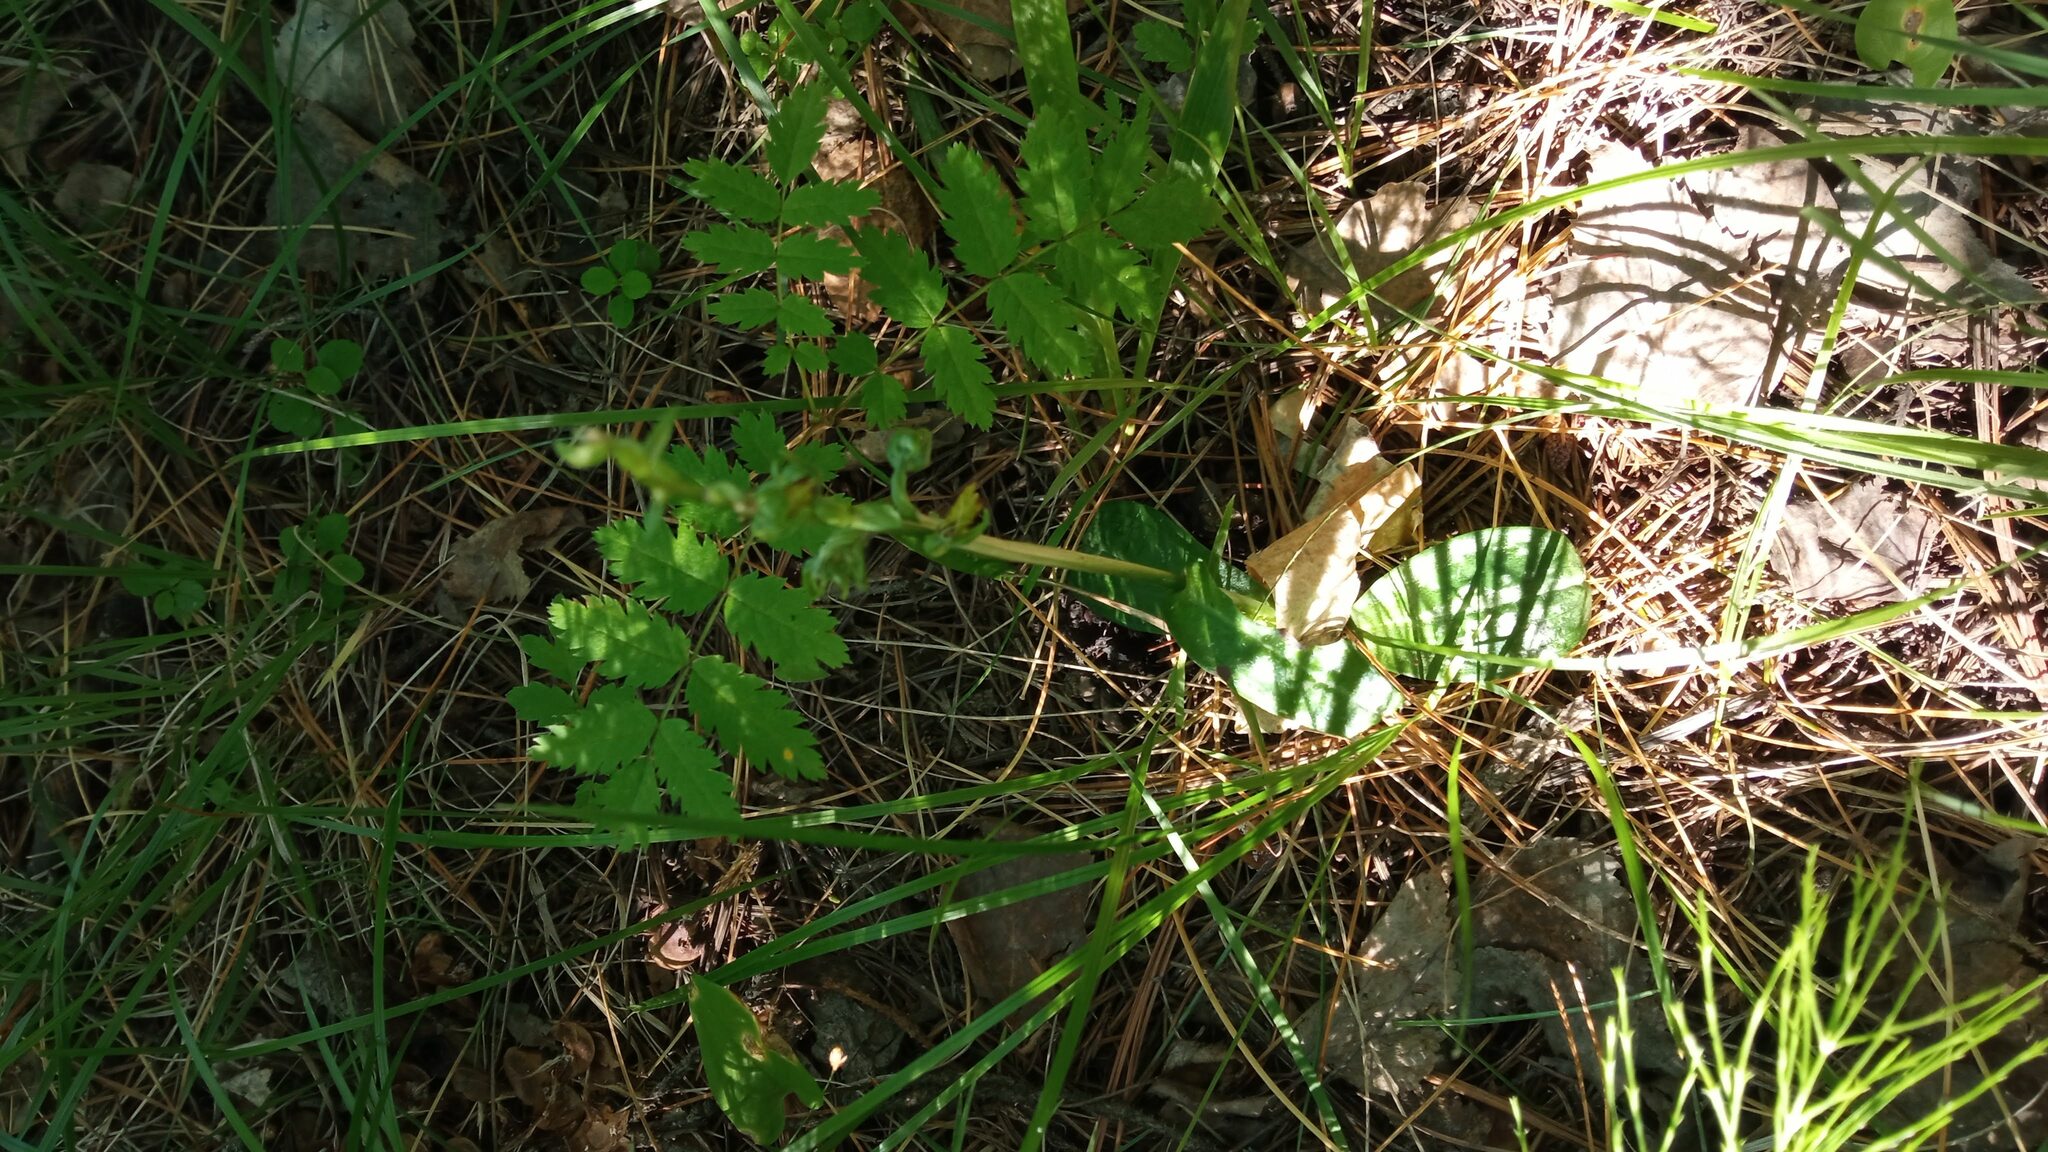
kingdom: Plantae
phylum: Tracheophyta
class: Magnoliopsida
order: Rosales
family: Rosaceae
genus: Sorbus
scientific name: Sorbus aucuparia
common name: Rowan
